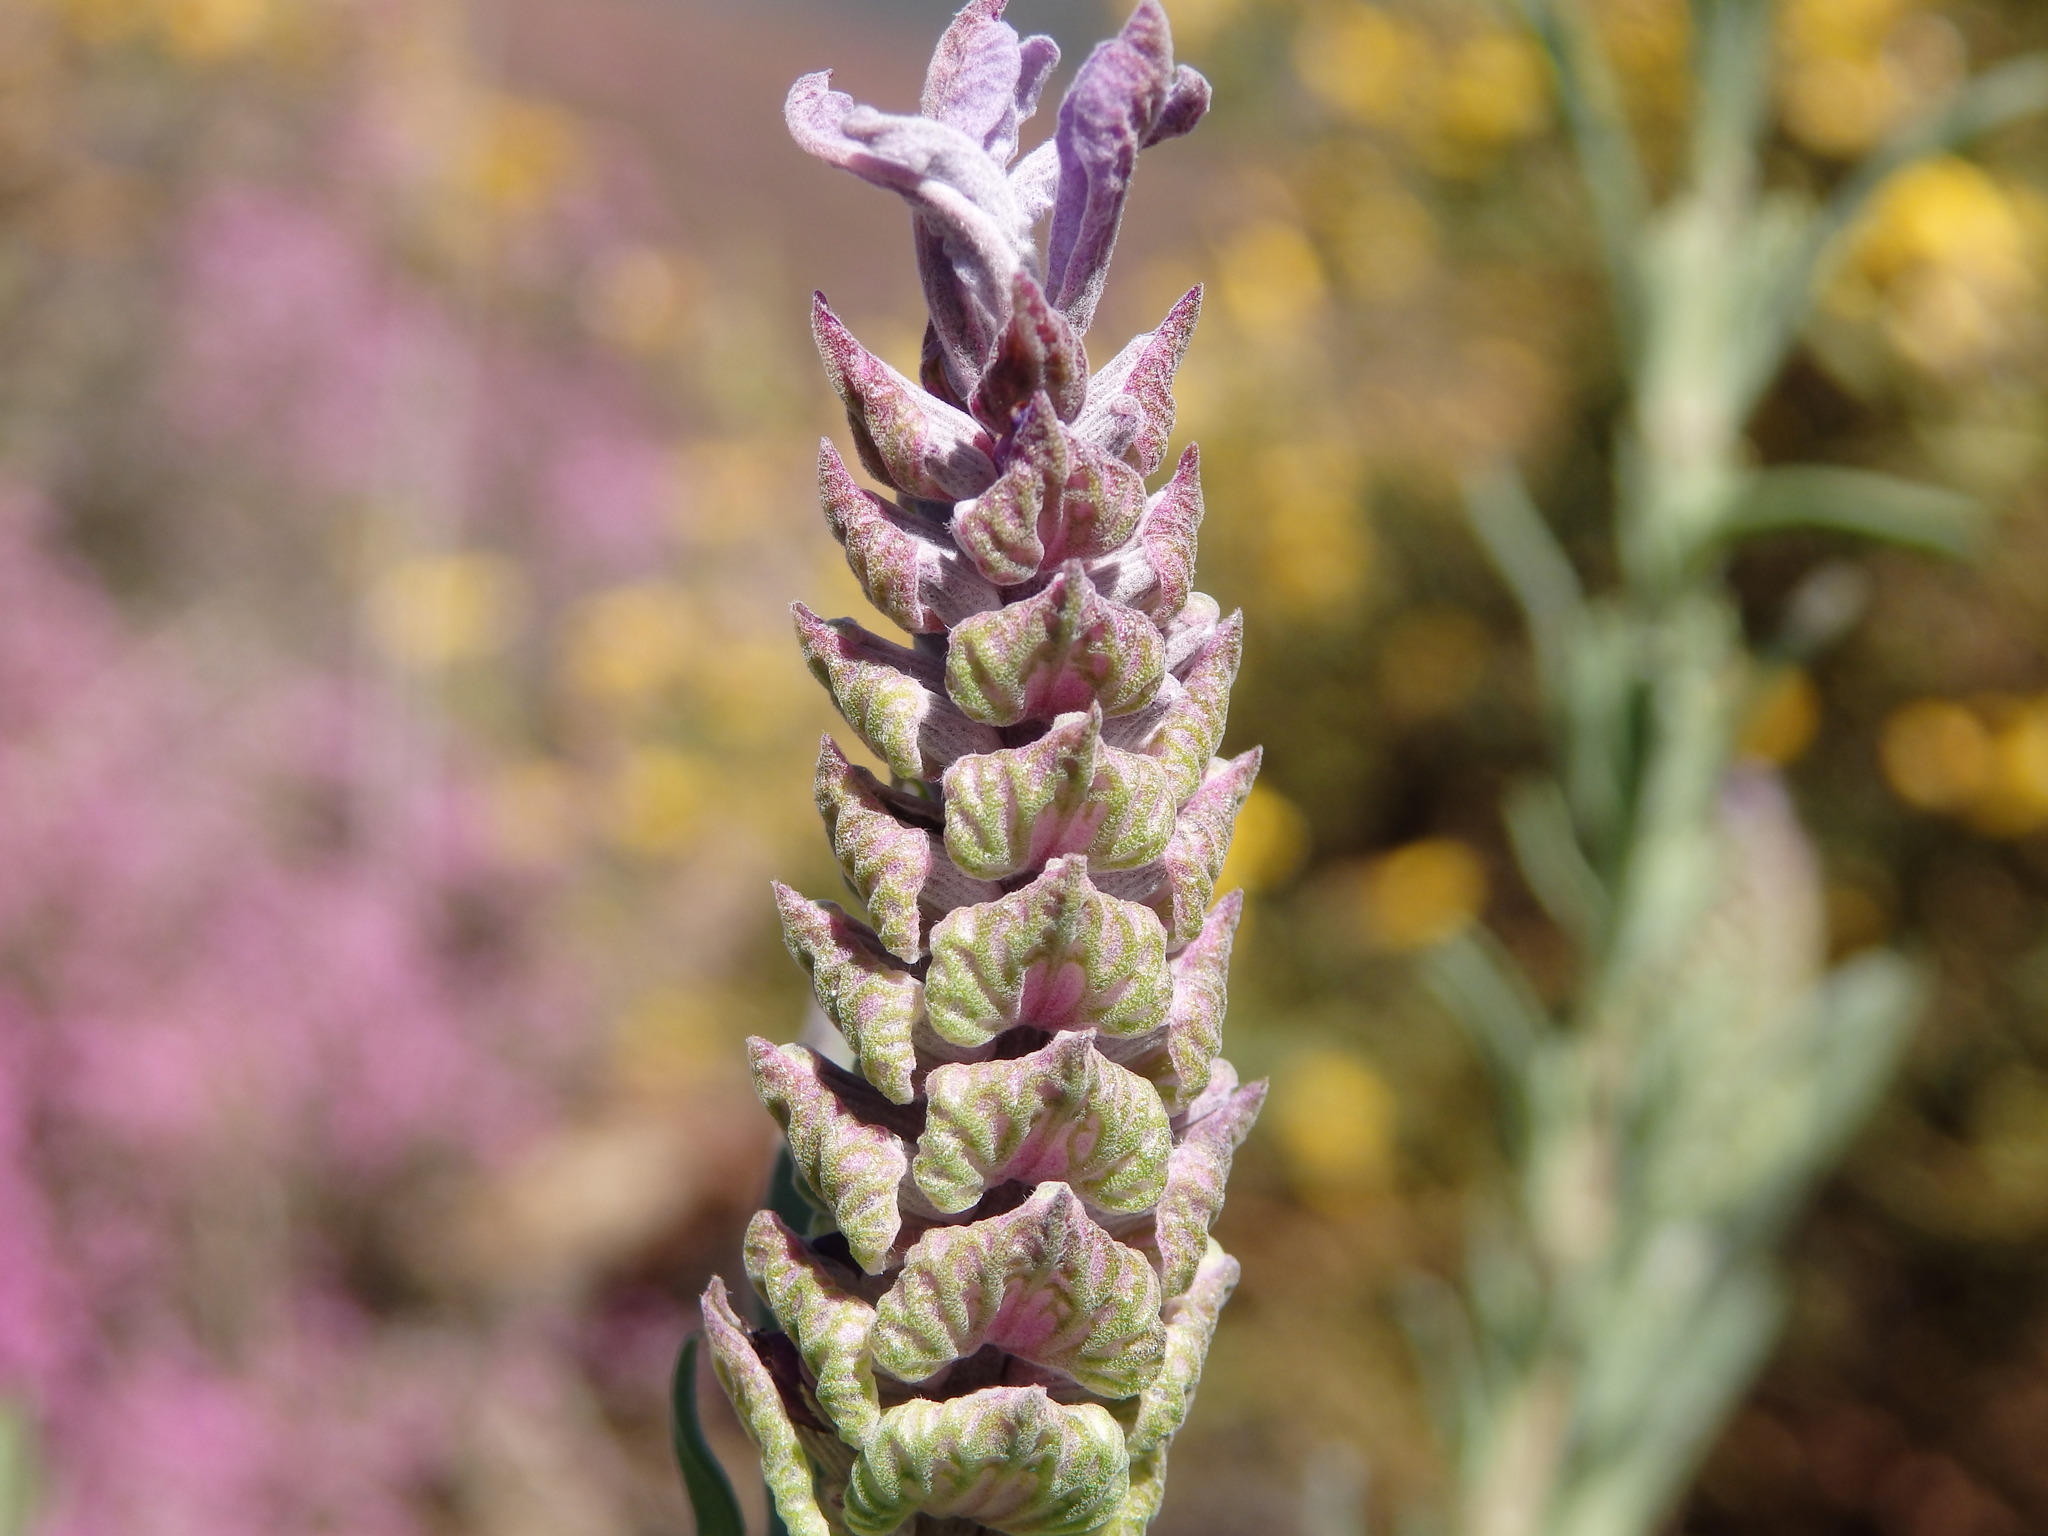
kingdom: Plantae
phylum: Tracheophyta
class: Magnoliopsida
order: Lamiales
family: Lamiaceae
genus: Lavandula
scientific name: Lavandula stoechas
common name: French lavender
